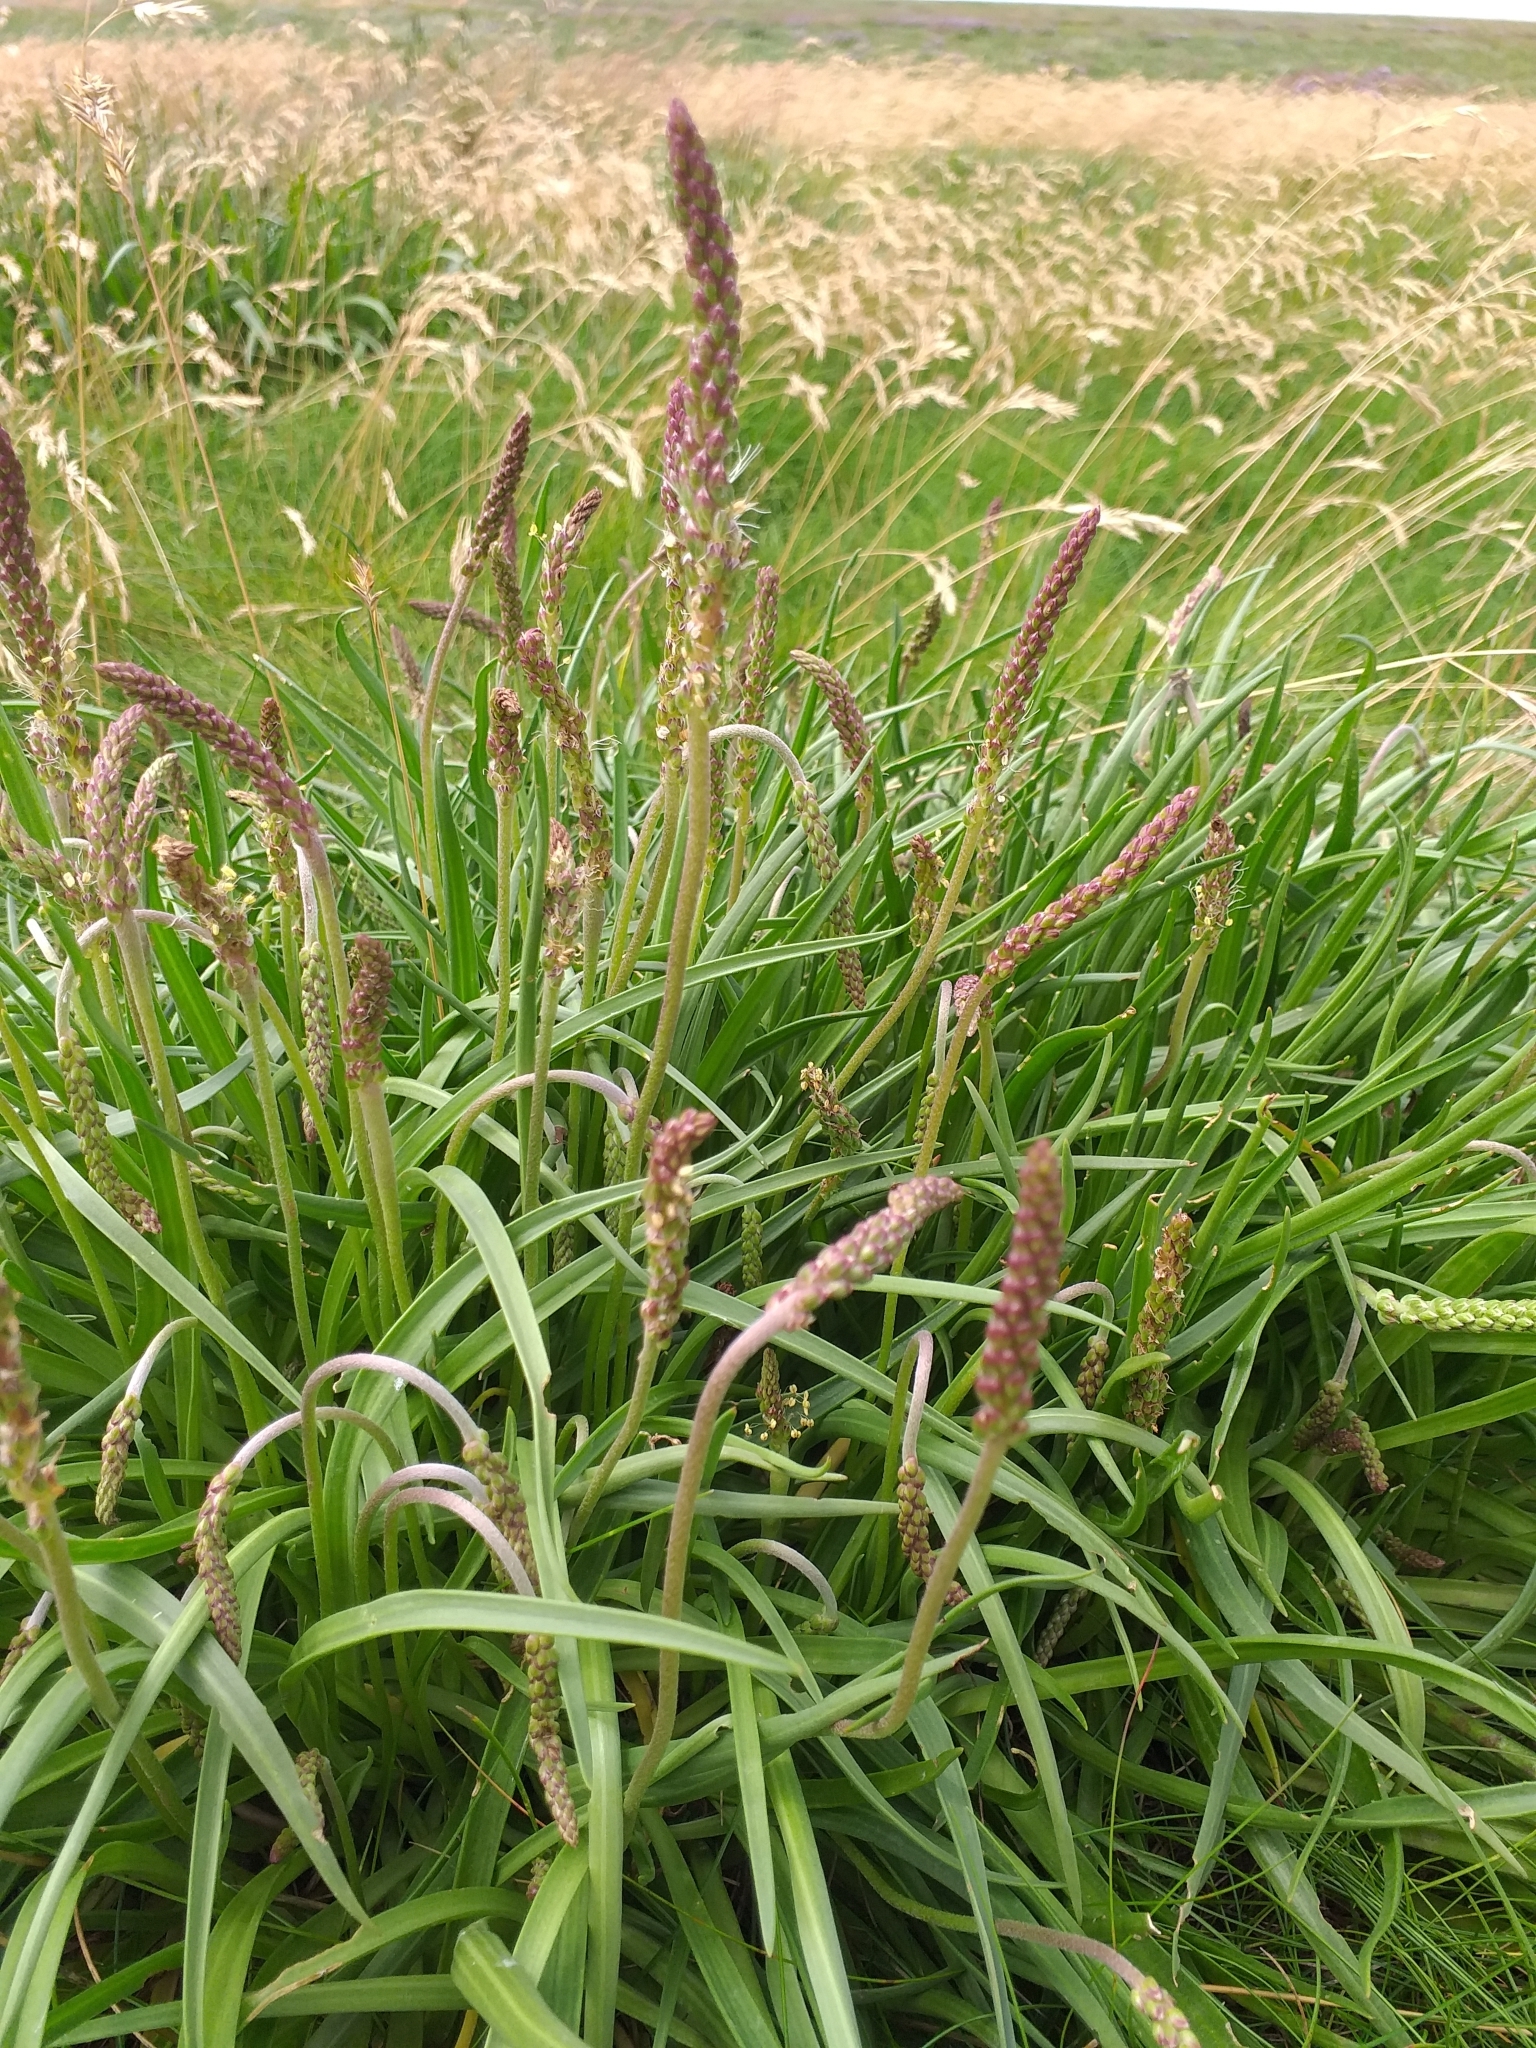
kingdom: Plantae
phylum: Tracheophyta
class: Magnoliopsida
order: Lamiales
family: Plantaginaceae
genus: Plantago
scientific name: Plantago maritima
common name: Sea plantain
